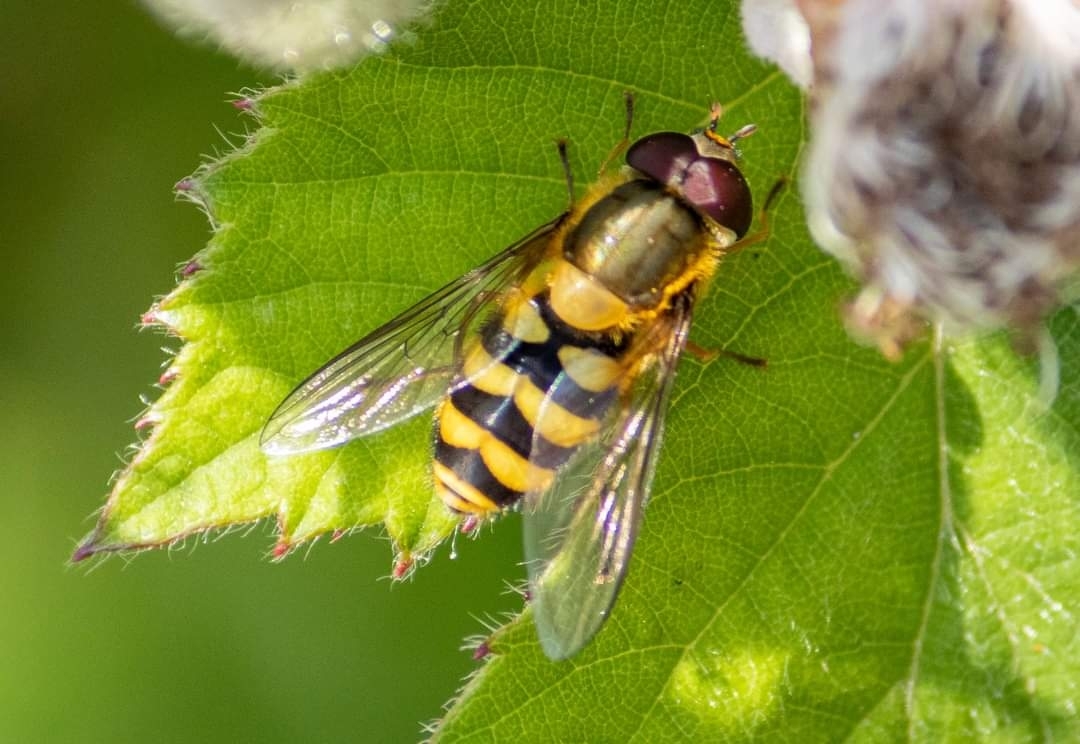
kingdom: Animalia
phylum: Arthropoda
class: Insecta
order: Diptera
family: Syrphidae
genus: Syrphus
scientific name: Syrphus
